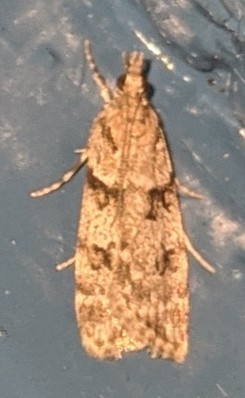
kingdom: Animalia
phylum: Arthropoda
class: Insecta
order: Lepidoptera
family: Crambidae
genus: Scoparia
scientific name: Scoparia biplagialis
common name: Double-striped scoparia moth
